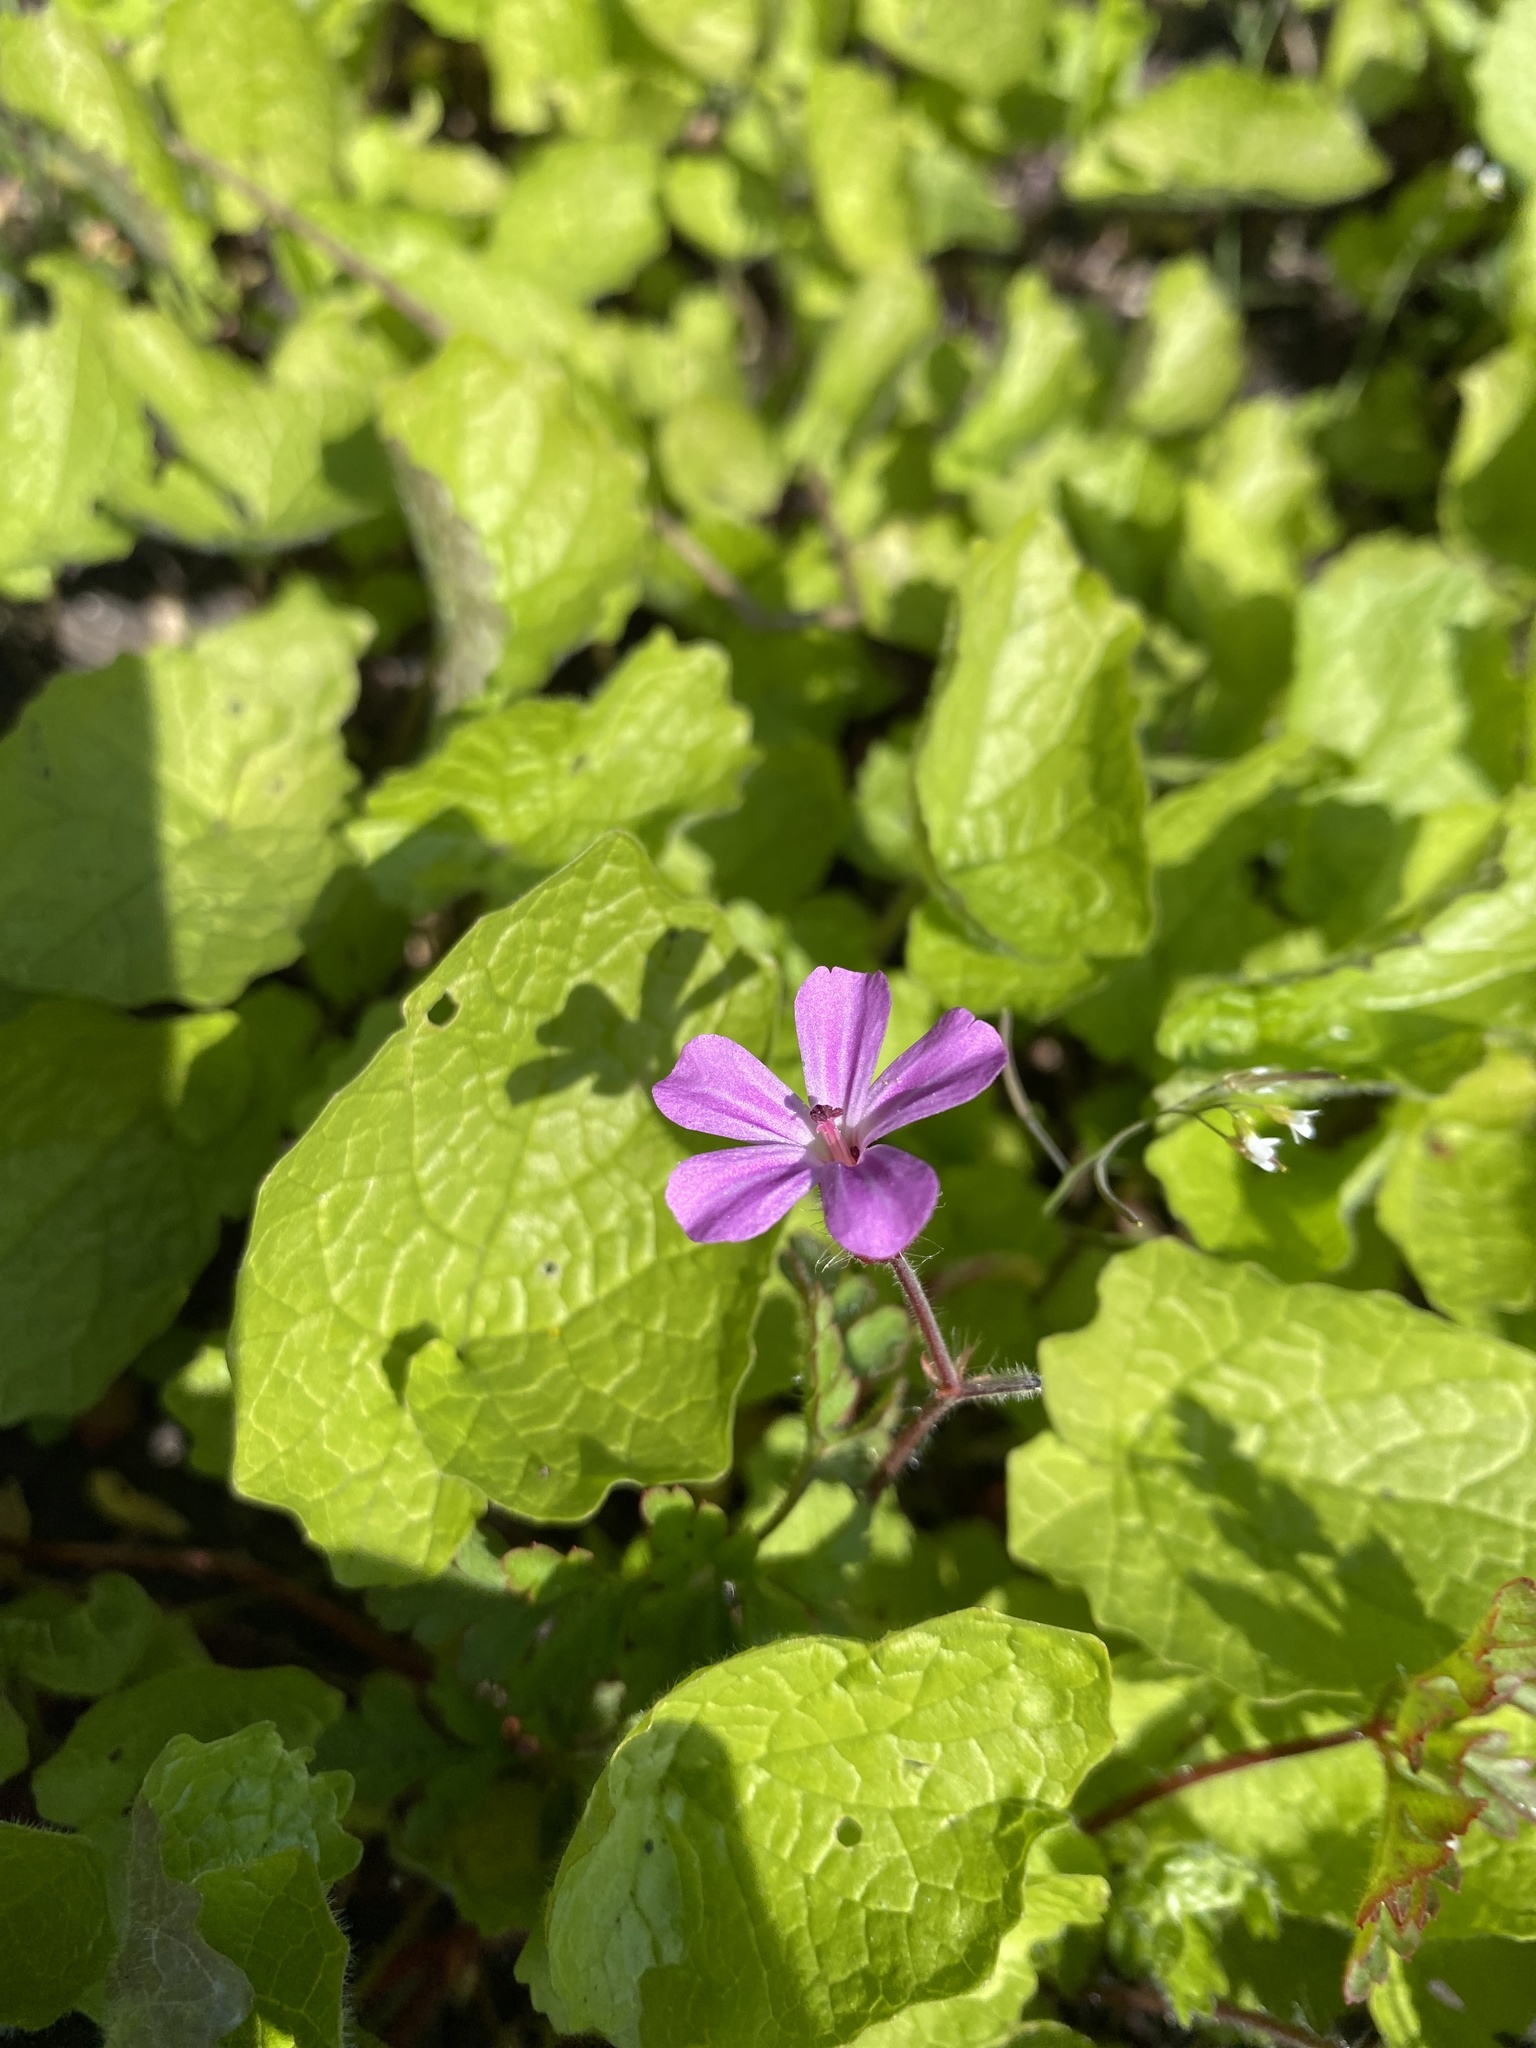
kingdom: Plantae
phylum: Tracheophyta
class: Magnoliopsida
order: Geraniales
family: Geraniaceae
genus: Geranium
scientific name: Geranium robertianum
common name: Herb-robert
